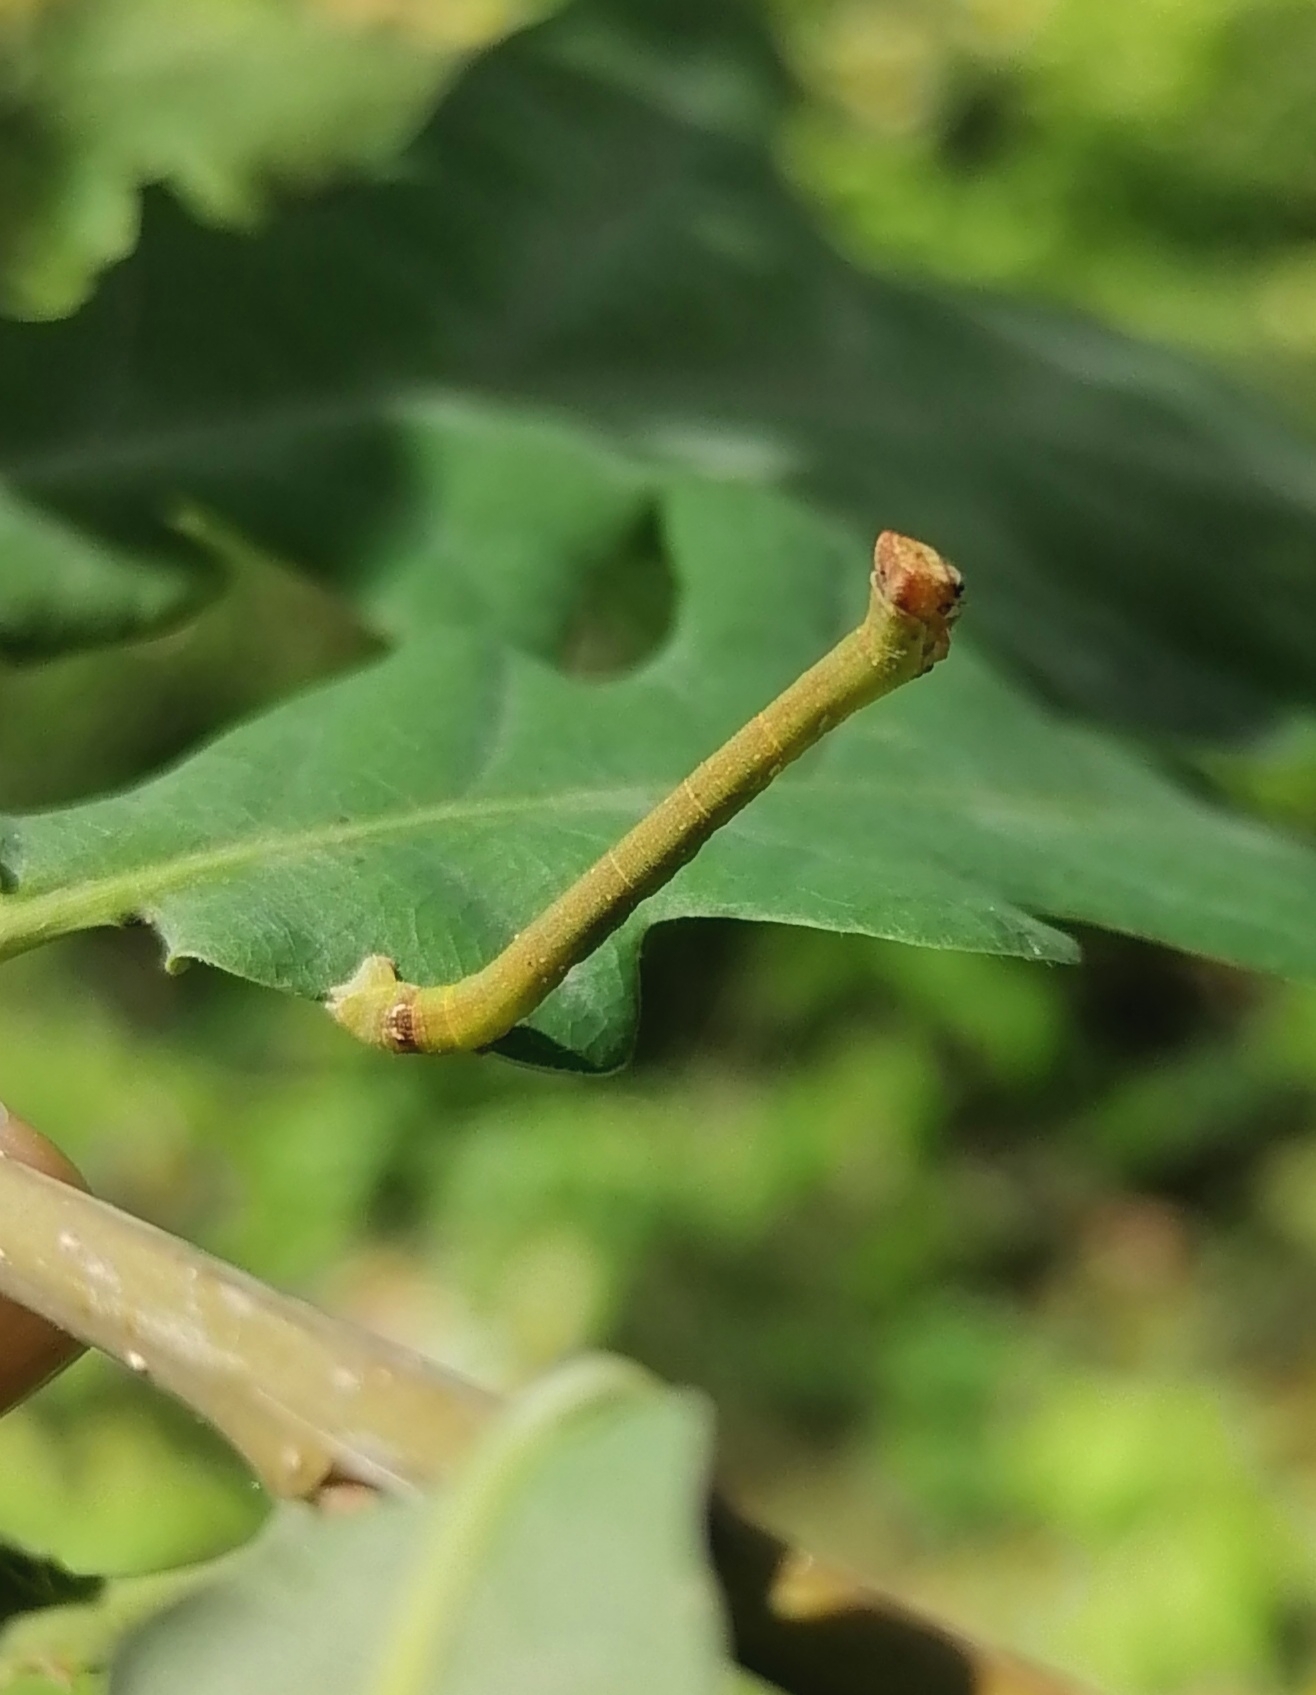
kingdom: Animalia
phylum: Arthropoda
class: Insecta
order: Lepidoptera
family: Geometridae
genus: Biston
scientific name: Biston betularia
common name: Peppered moth
